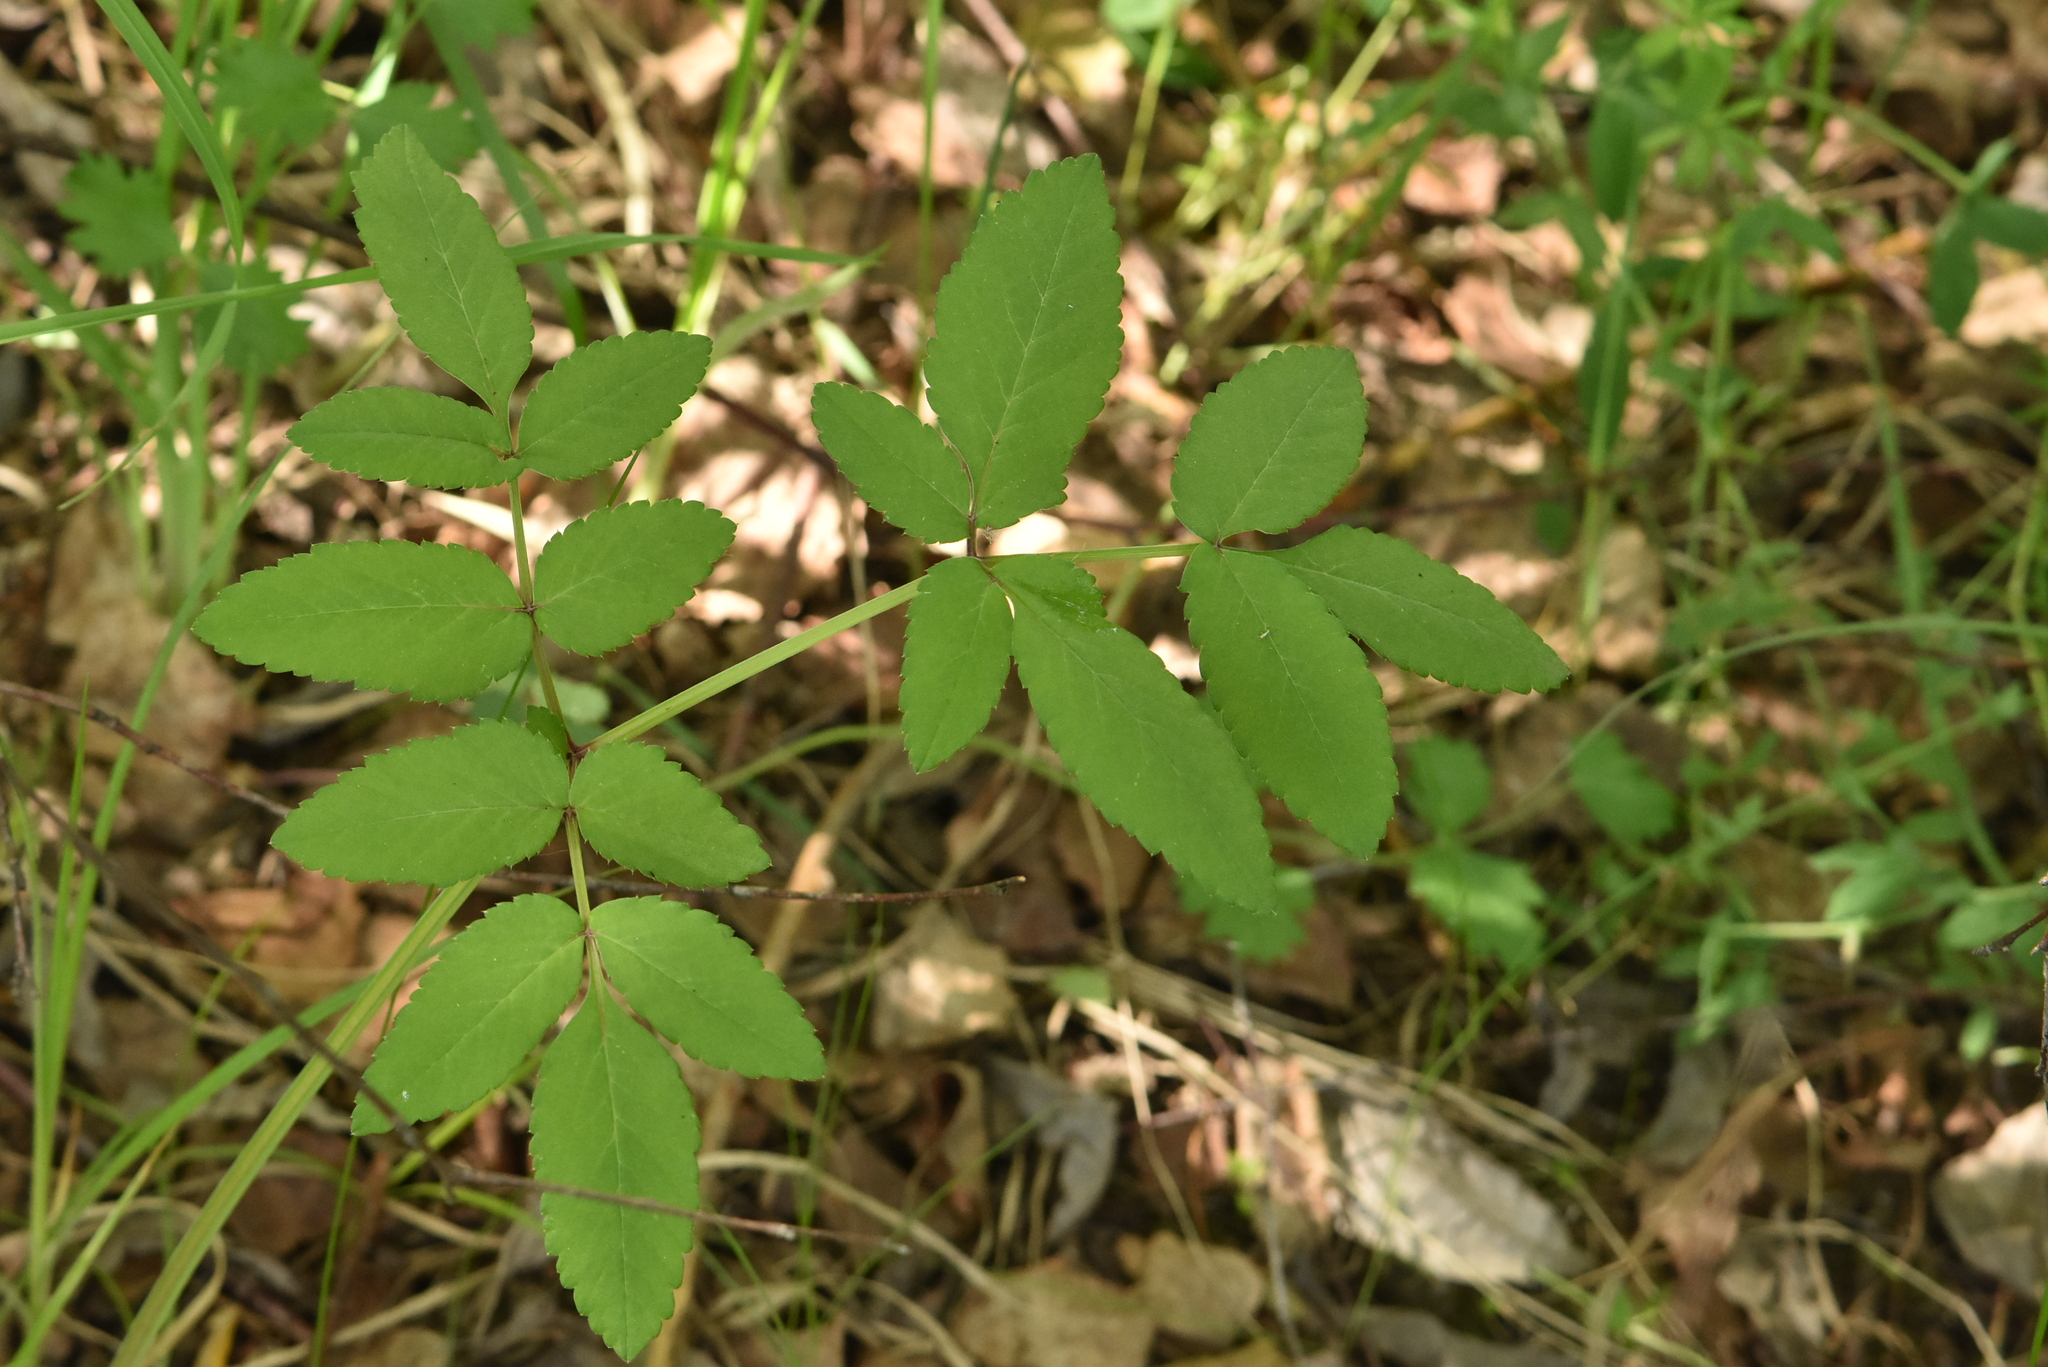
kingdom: Plantae
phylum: Tracheophyta
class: Magnoliopsida
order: Apiales
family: Apiaceae
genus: Angelica
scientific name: Angelica sylvestris
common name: Wild angelica
